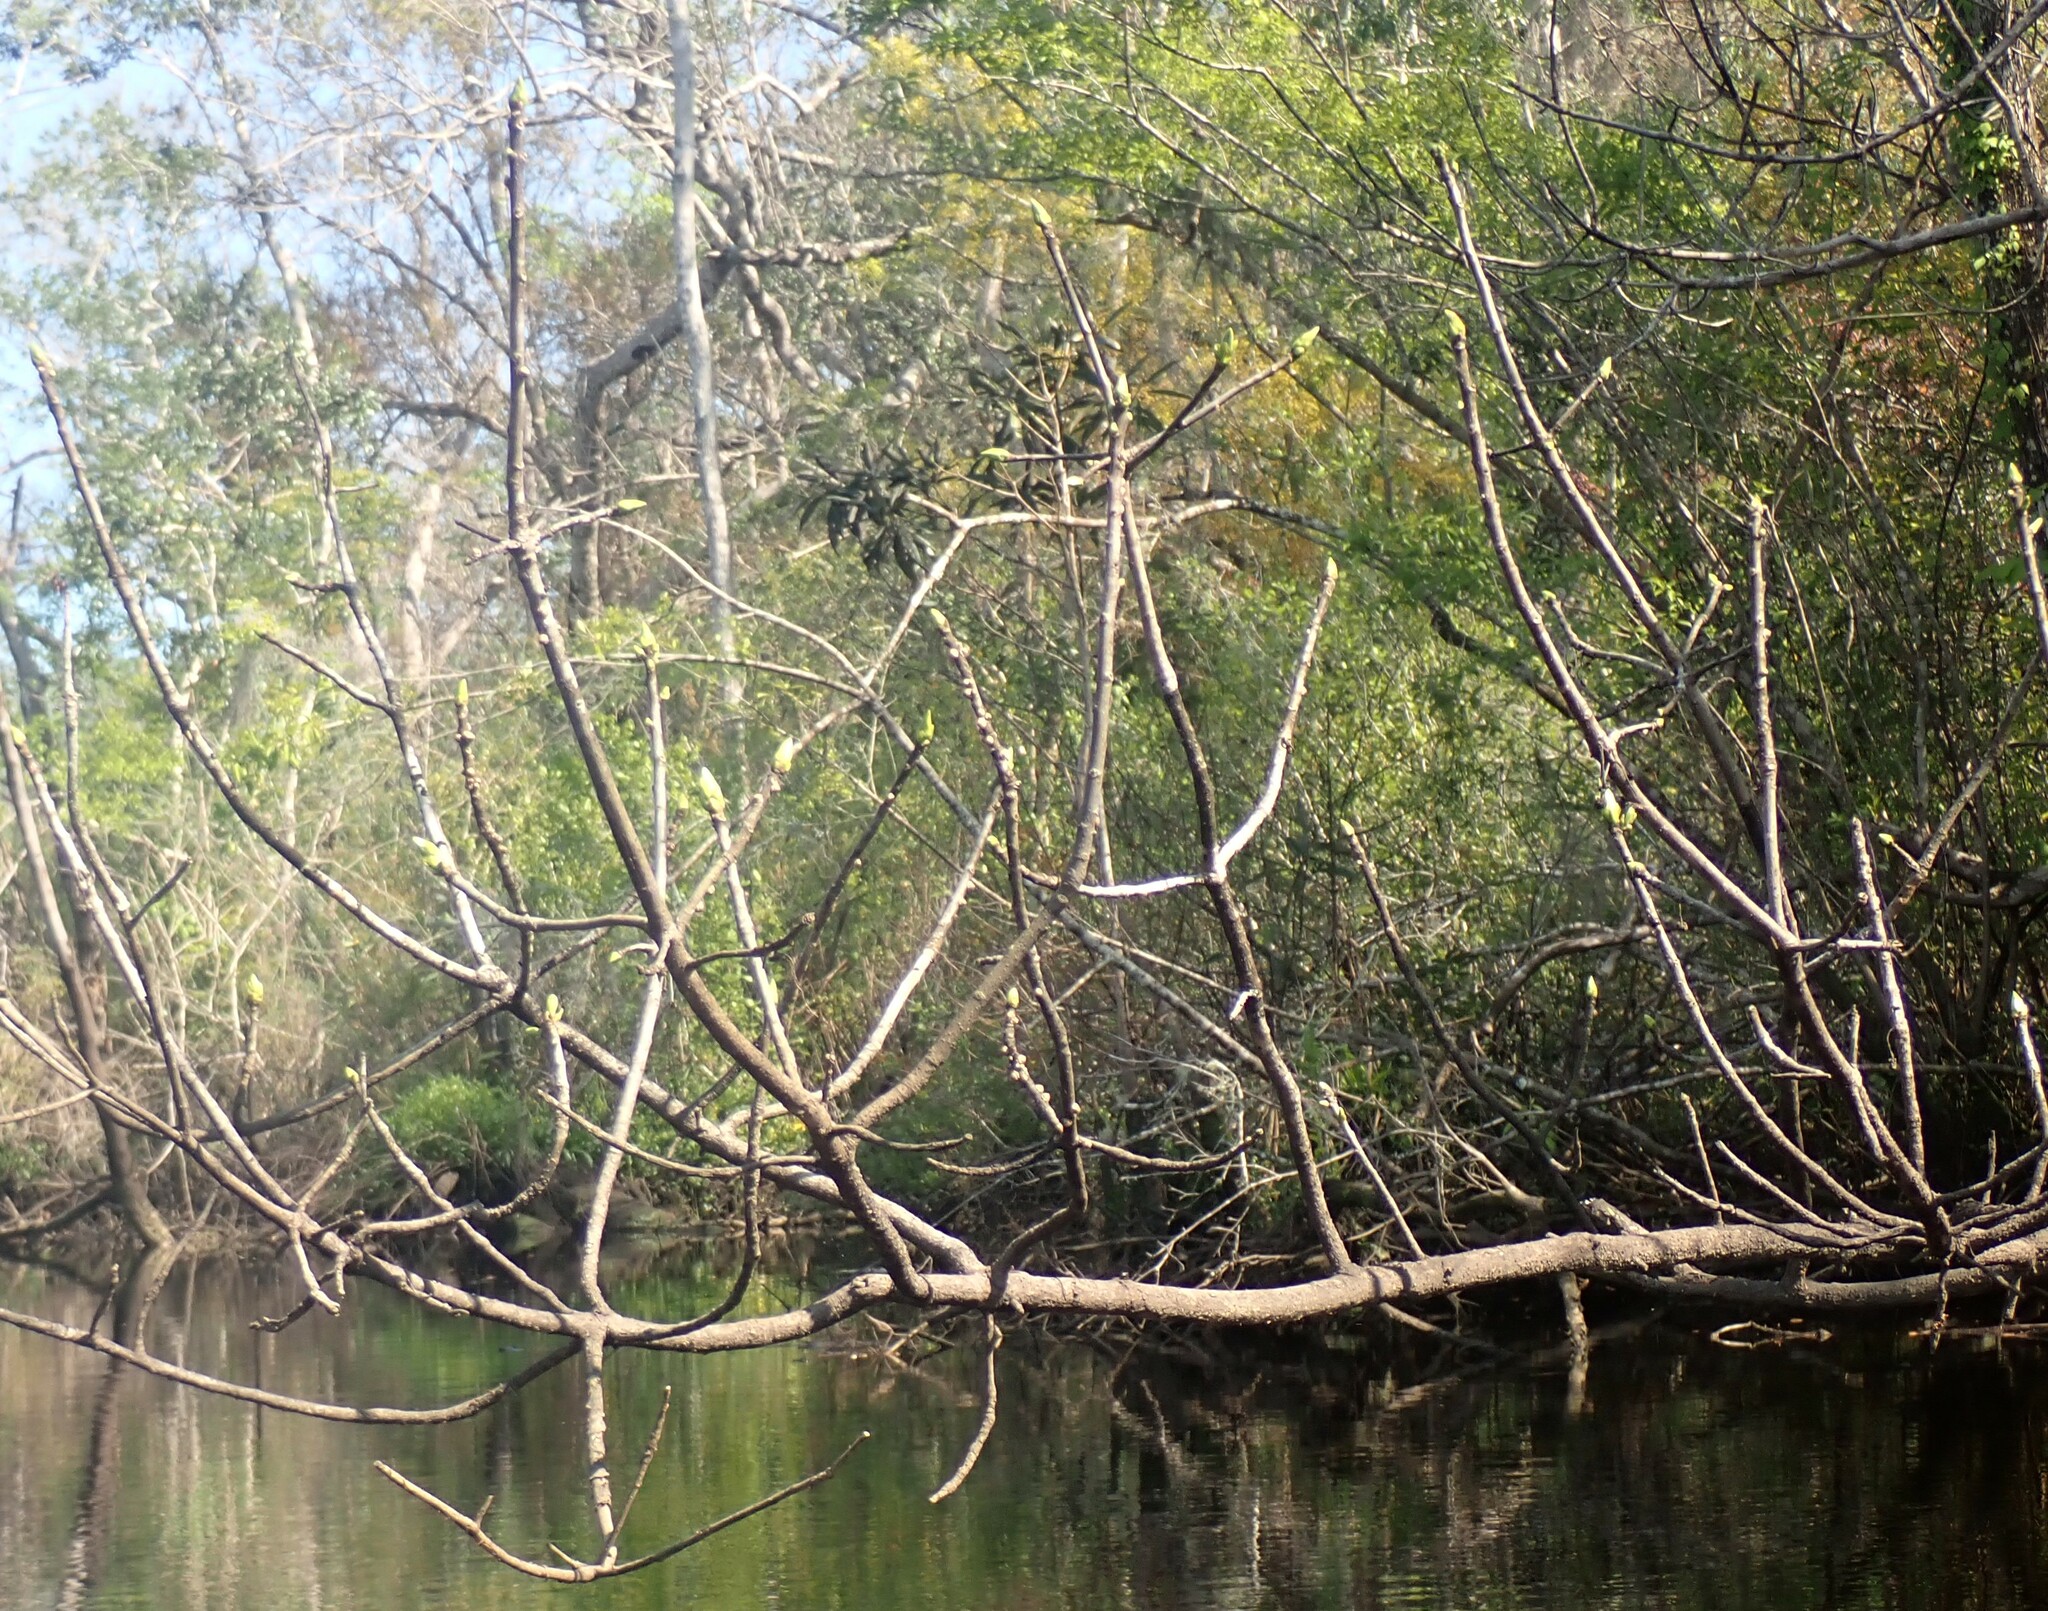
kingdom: Plantae
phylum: Tracheophyta
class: Magnoliopsida
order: Cornales
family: Nyssaceae
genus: Nyssa
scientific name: Nyssa ogeche
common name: Ogeechee tupelo
